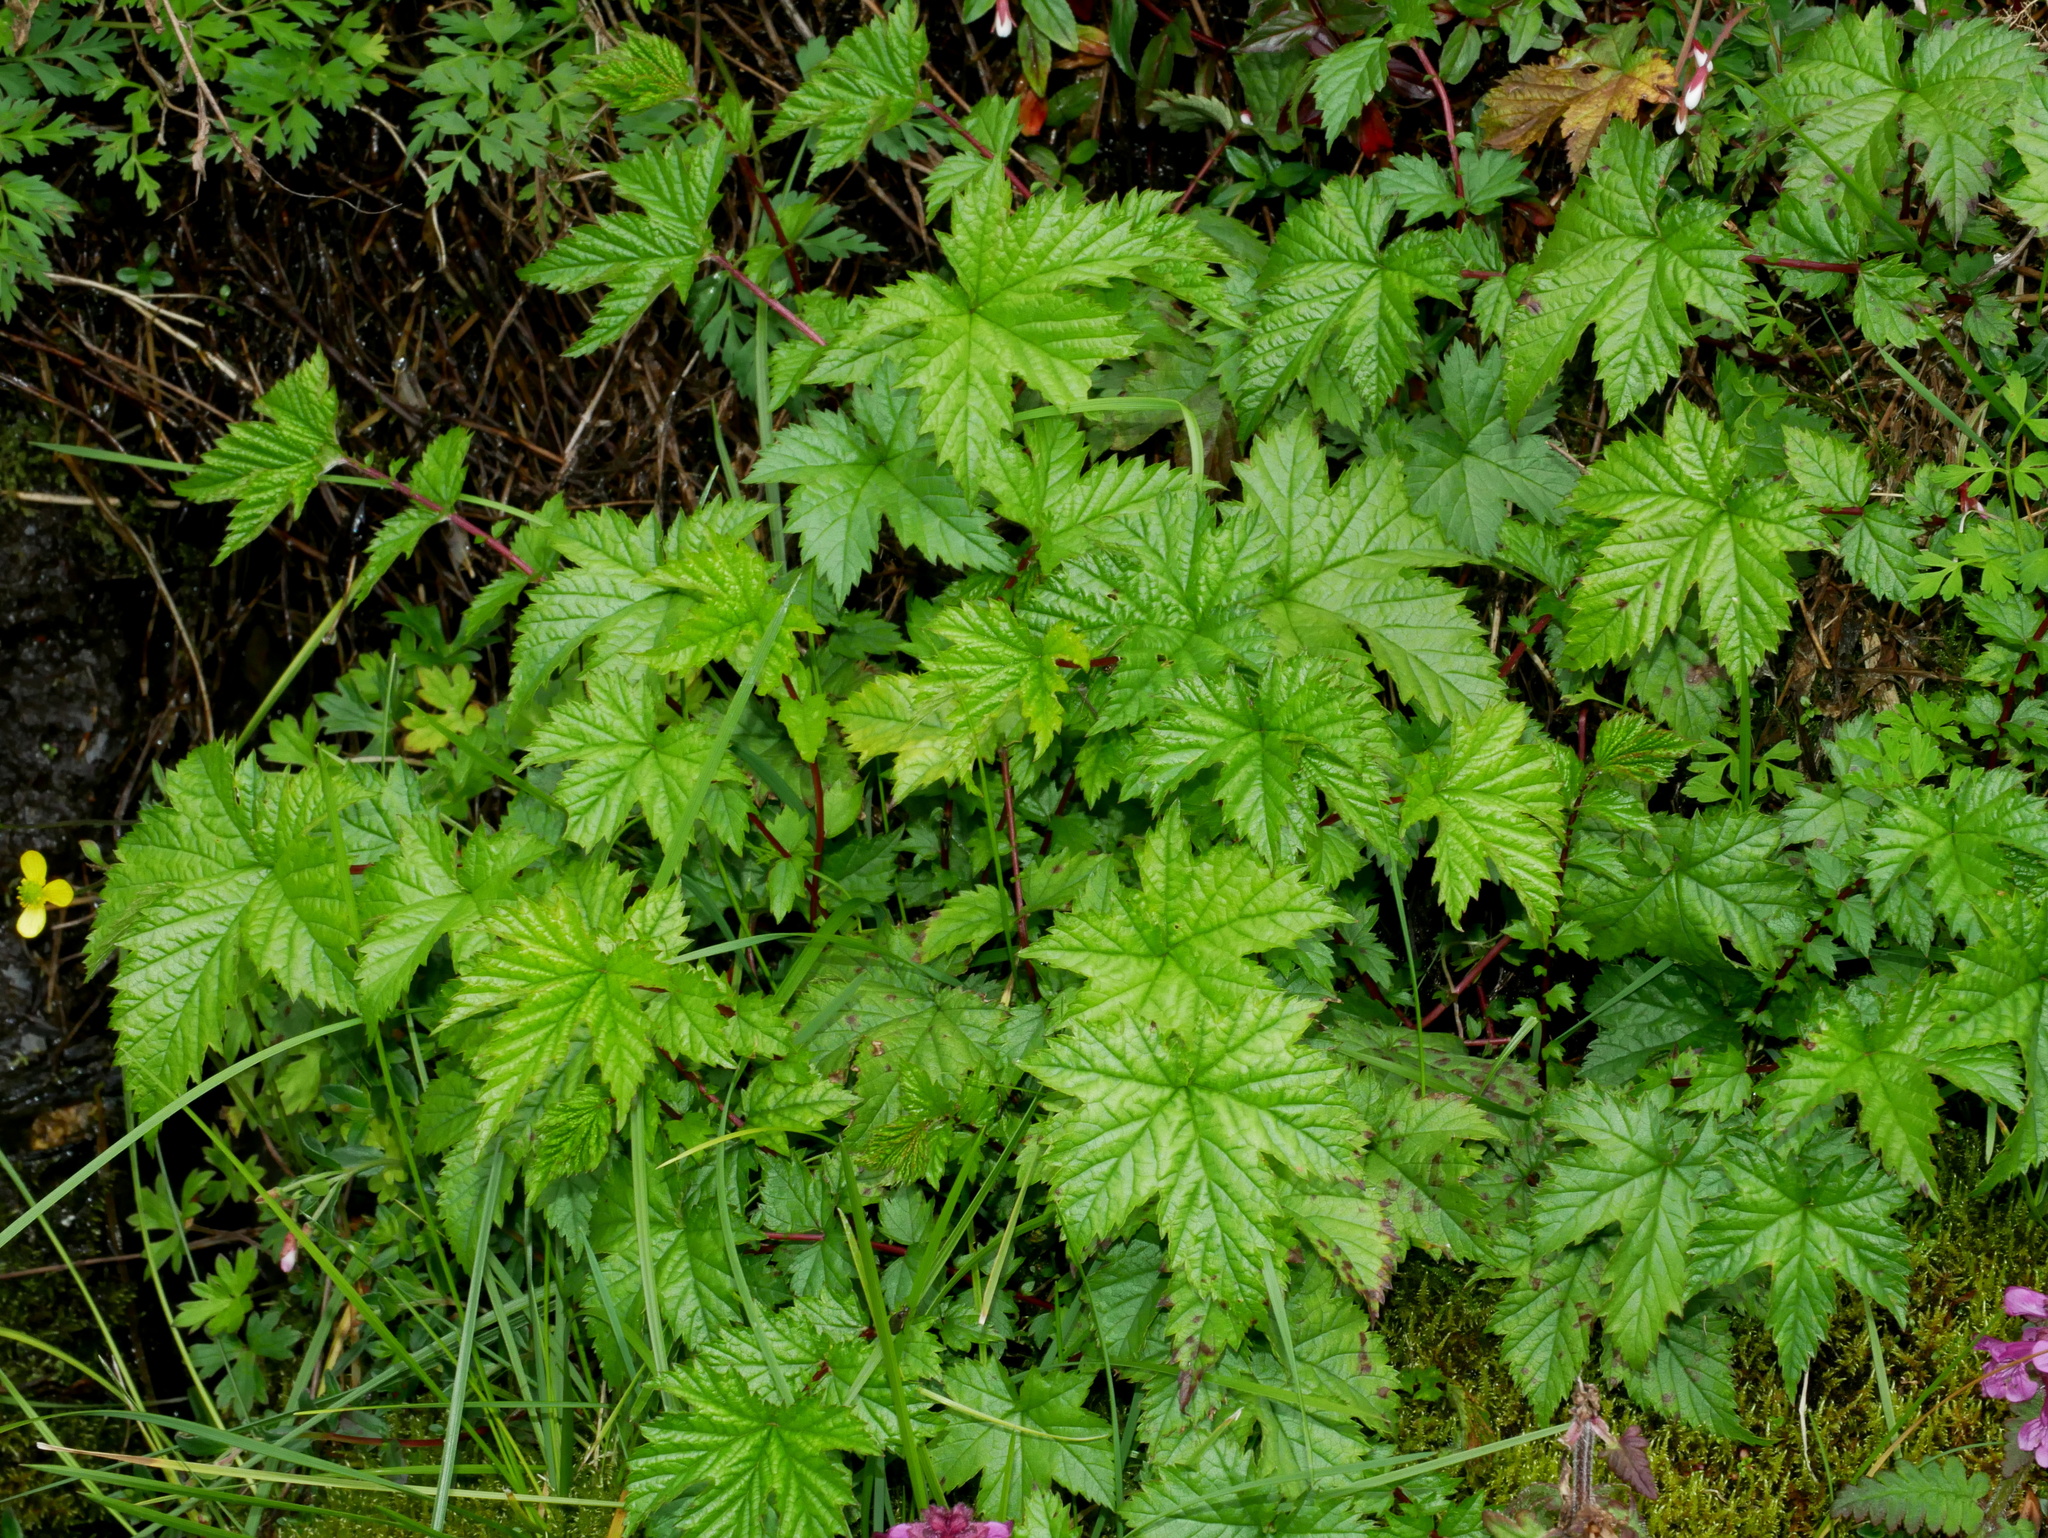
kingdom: Plantae
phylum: Tracheophyta
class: Magnoliopsida
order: Rosales
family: Rosaceae
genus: Filipendula
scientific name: Filipendula kiraishiensis
